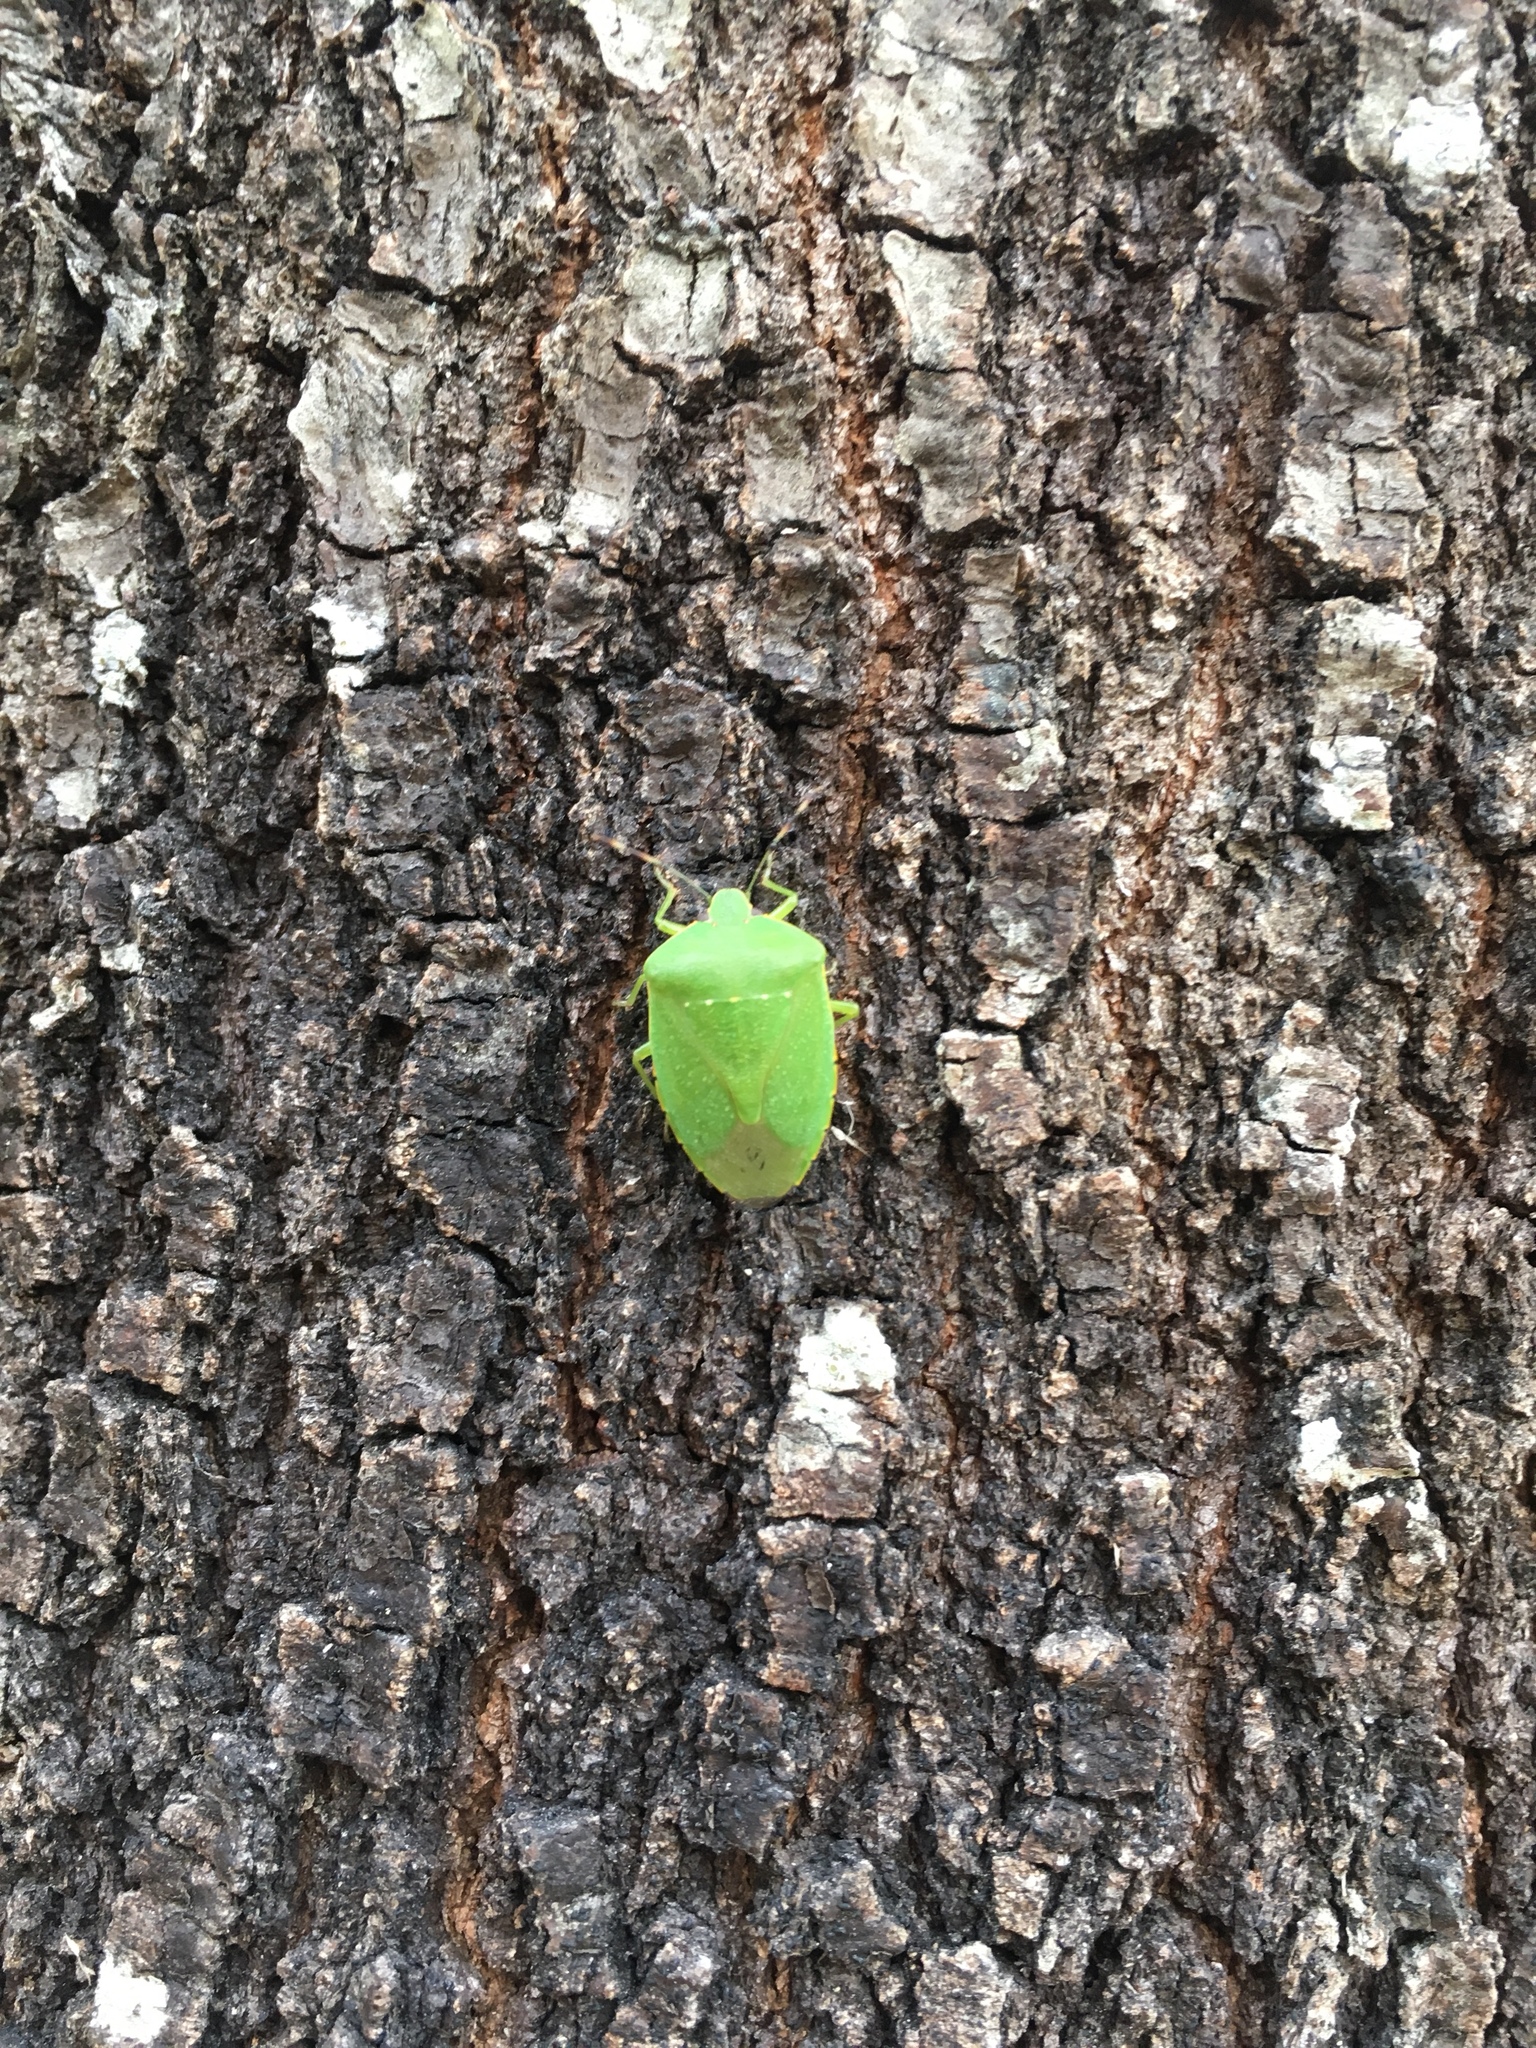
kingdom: Animalia
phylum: Arthropoda
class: Insecta
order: Hemiptera
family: Pentatomidae
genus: Chinavia
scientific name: Chinavia hilaris
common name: Green stink bug
